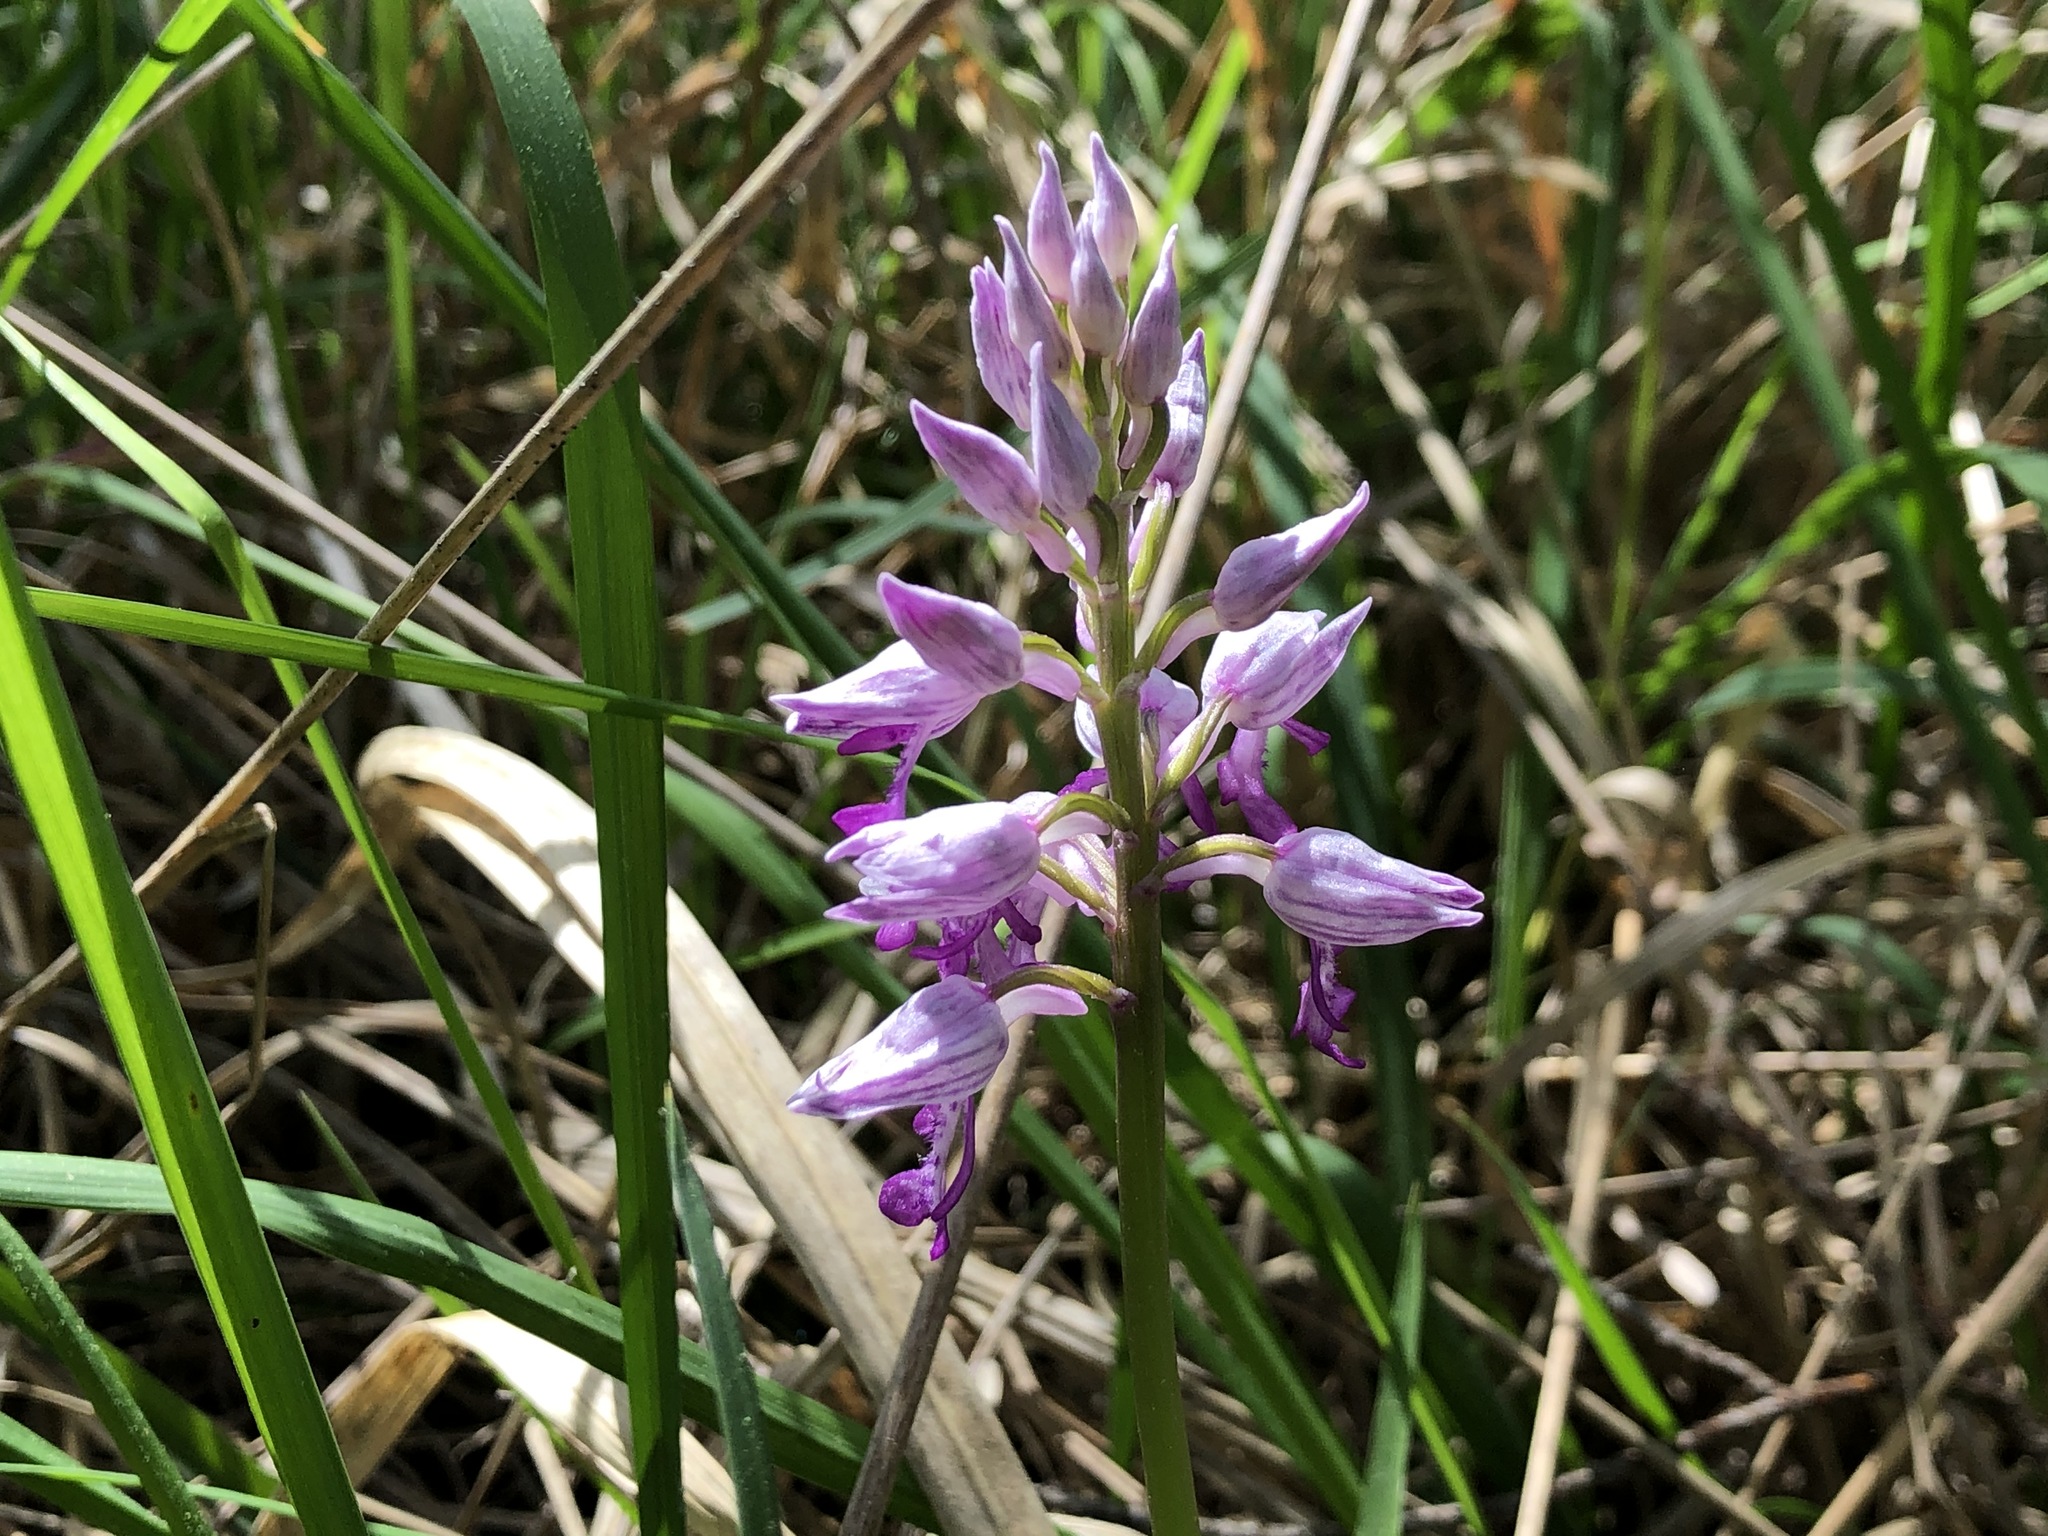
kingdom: Plantae
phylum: Tracheophyta
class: Liliopsida
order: Asparagales
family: Orchidaceae
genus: Orchis
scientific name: Orchis militaris
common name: Military orchid
